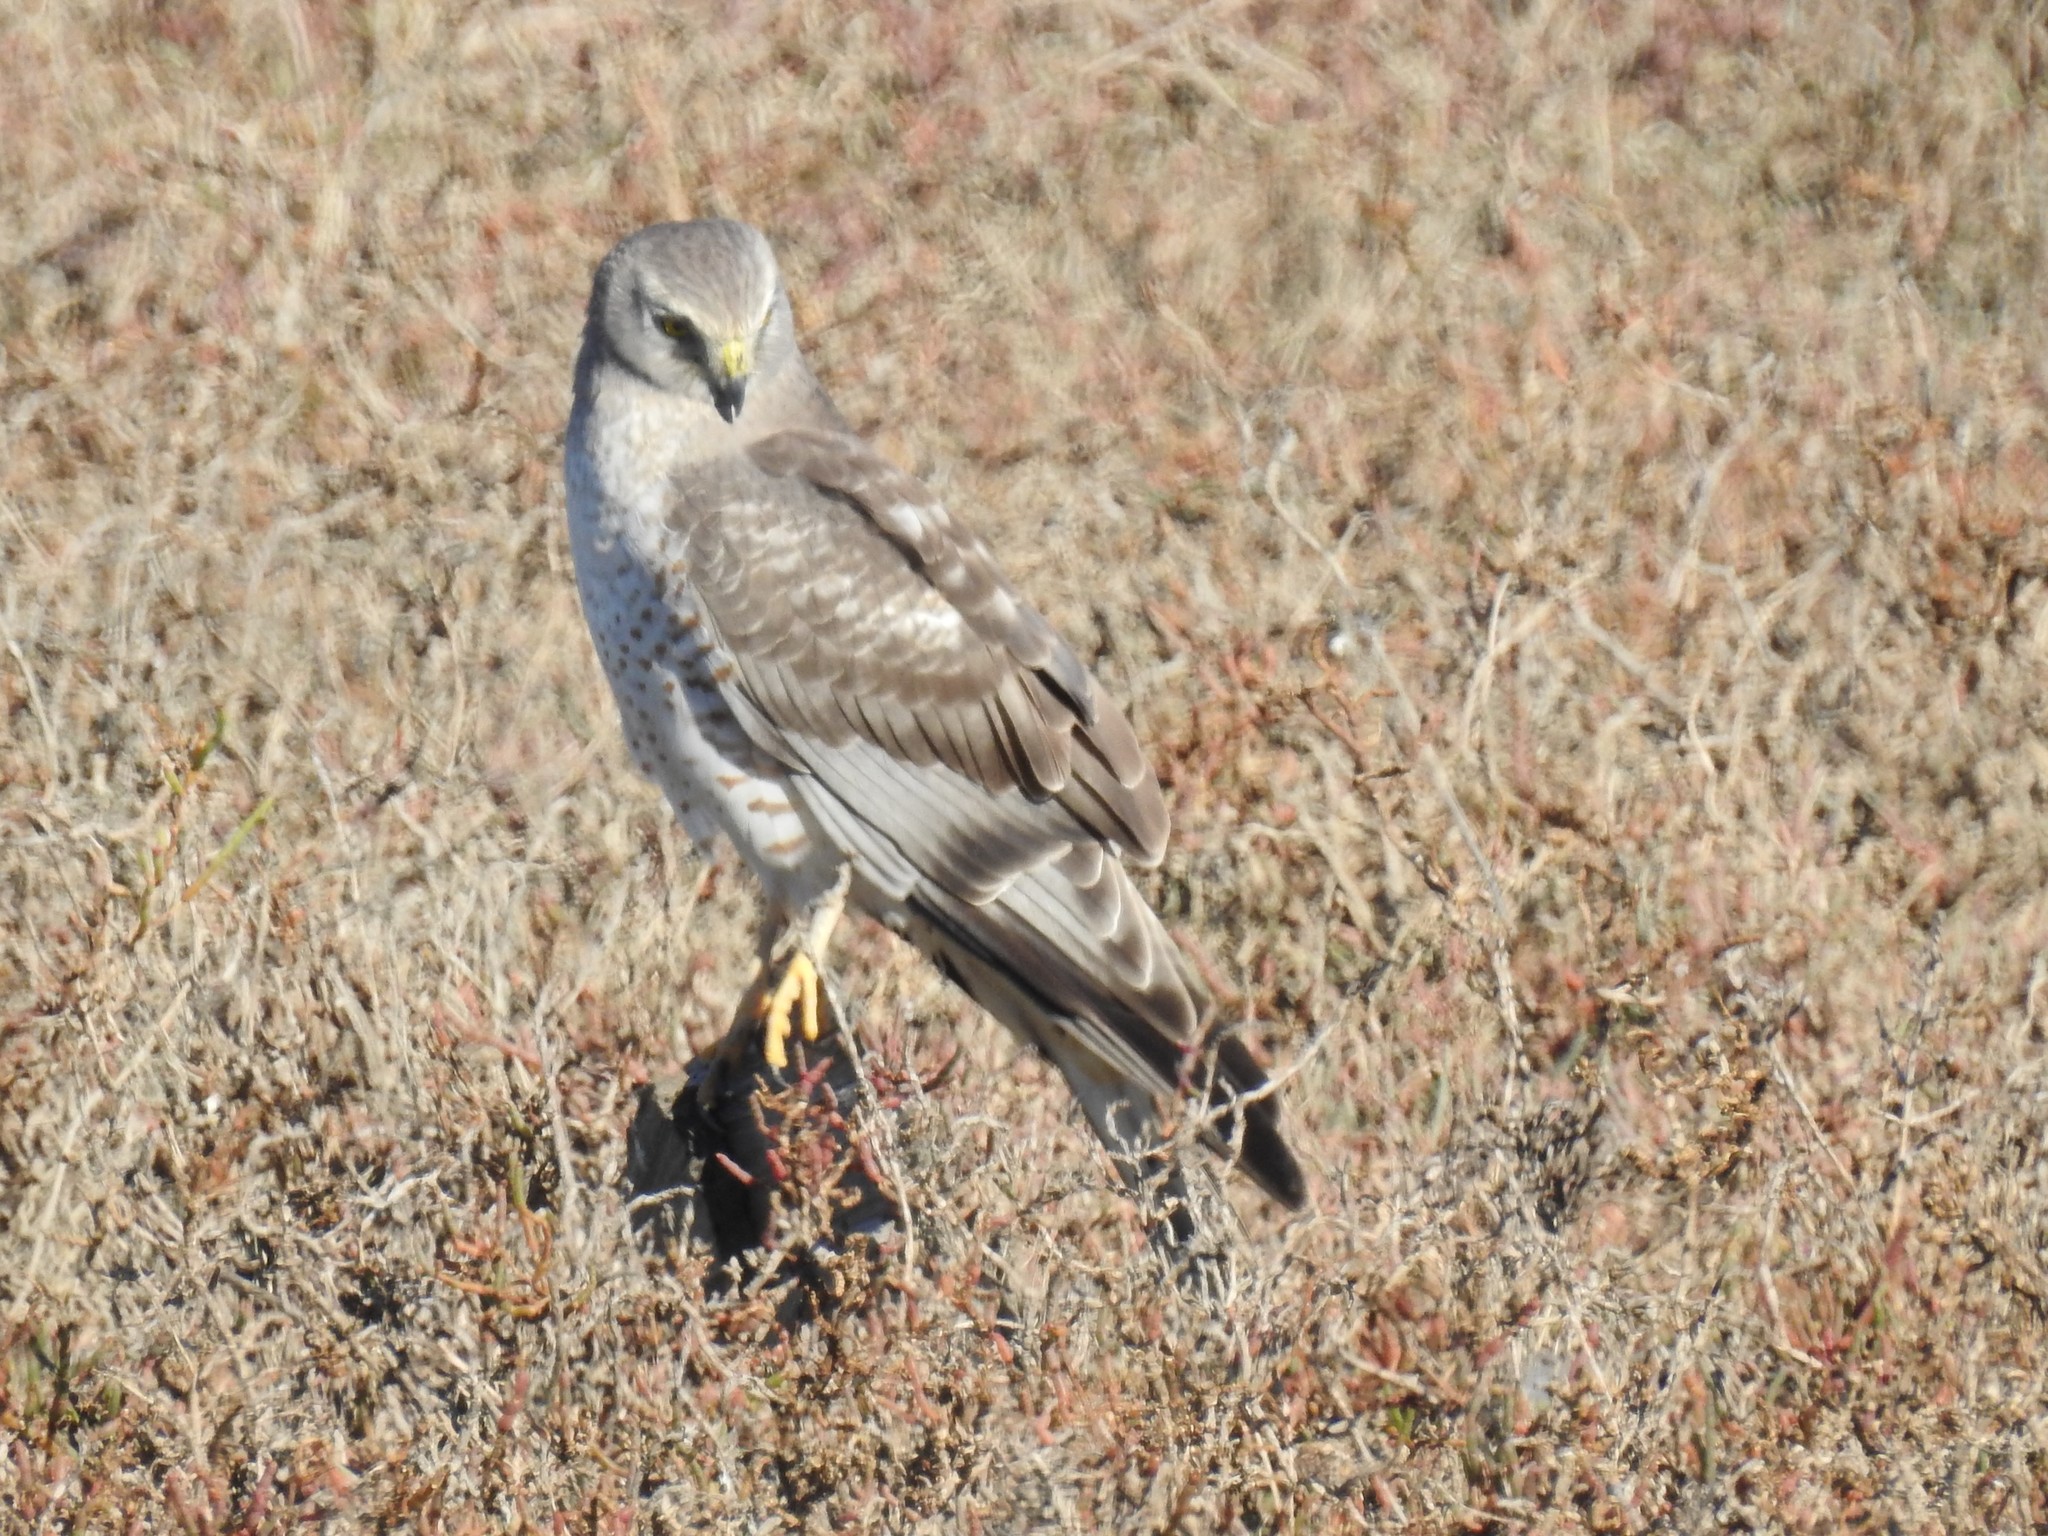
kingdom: Animalia
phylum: Chordata
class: Aves
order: Accipitriformes
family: Accipitridae
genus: Circus
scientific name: Circus cyaneus
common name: Hen harrier
